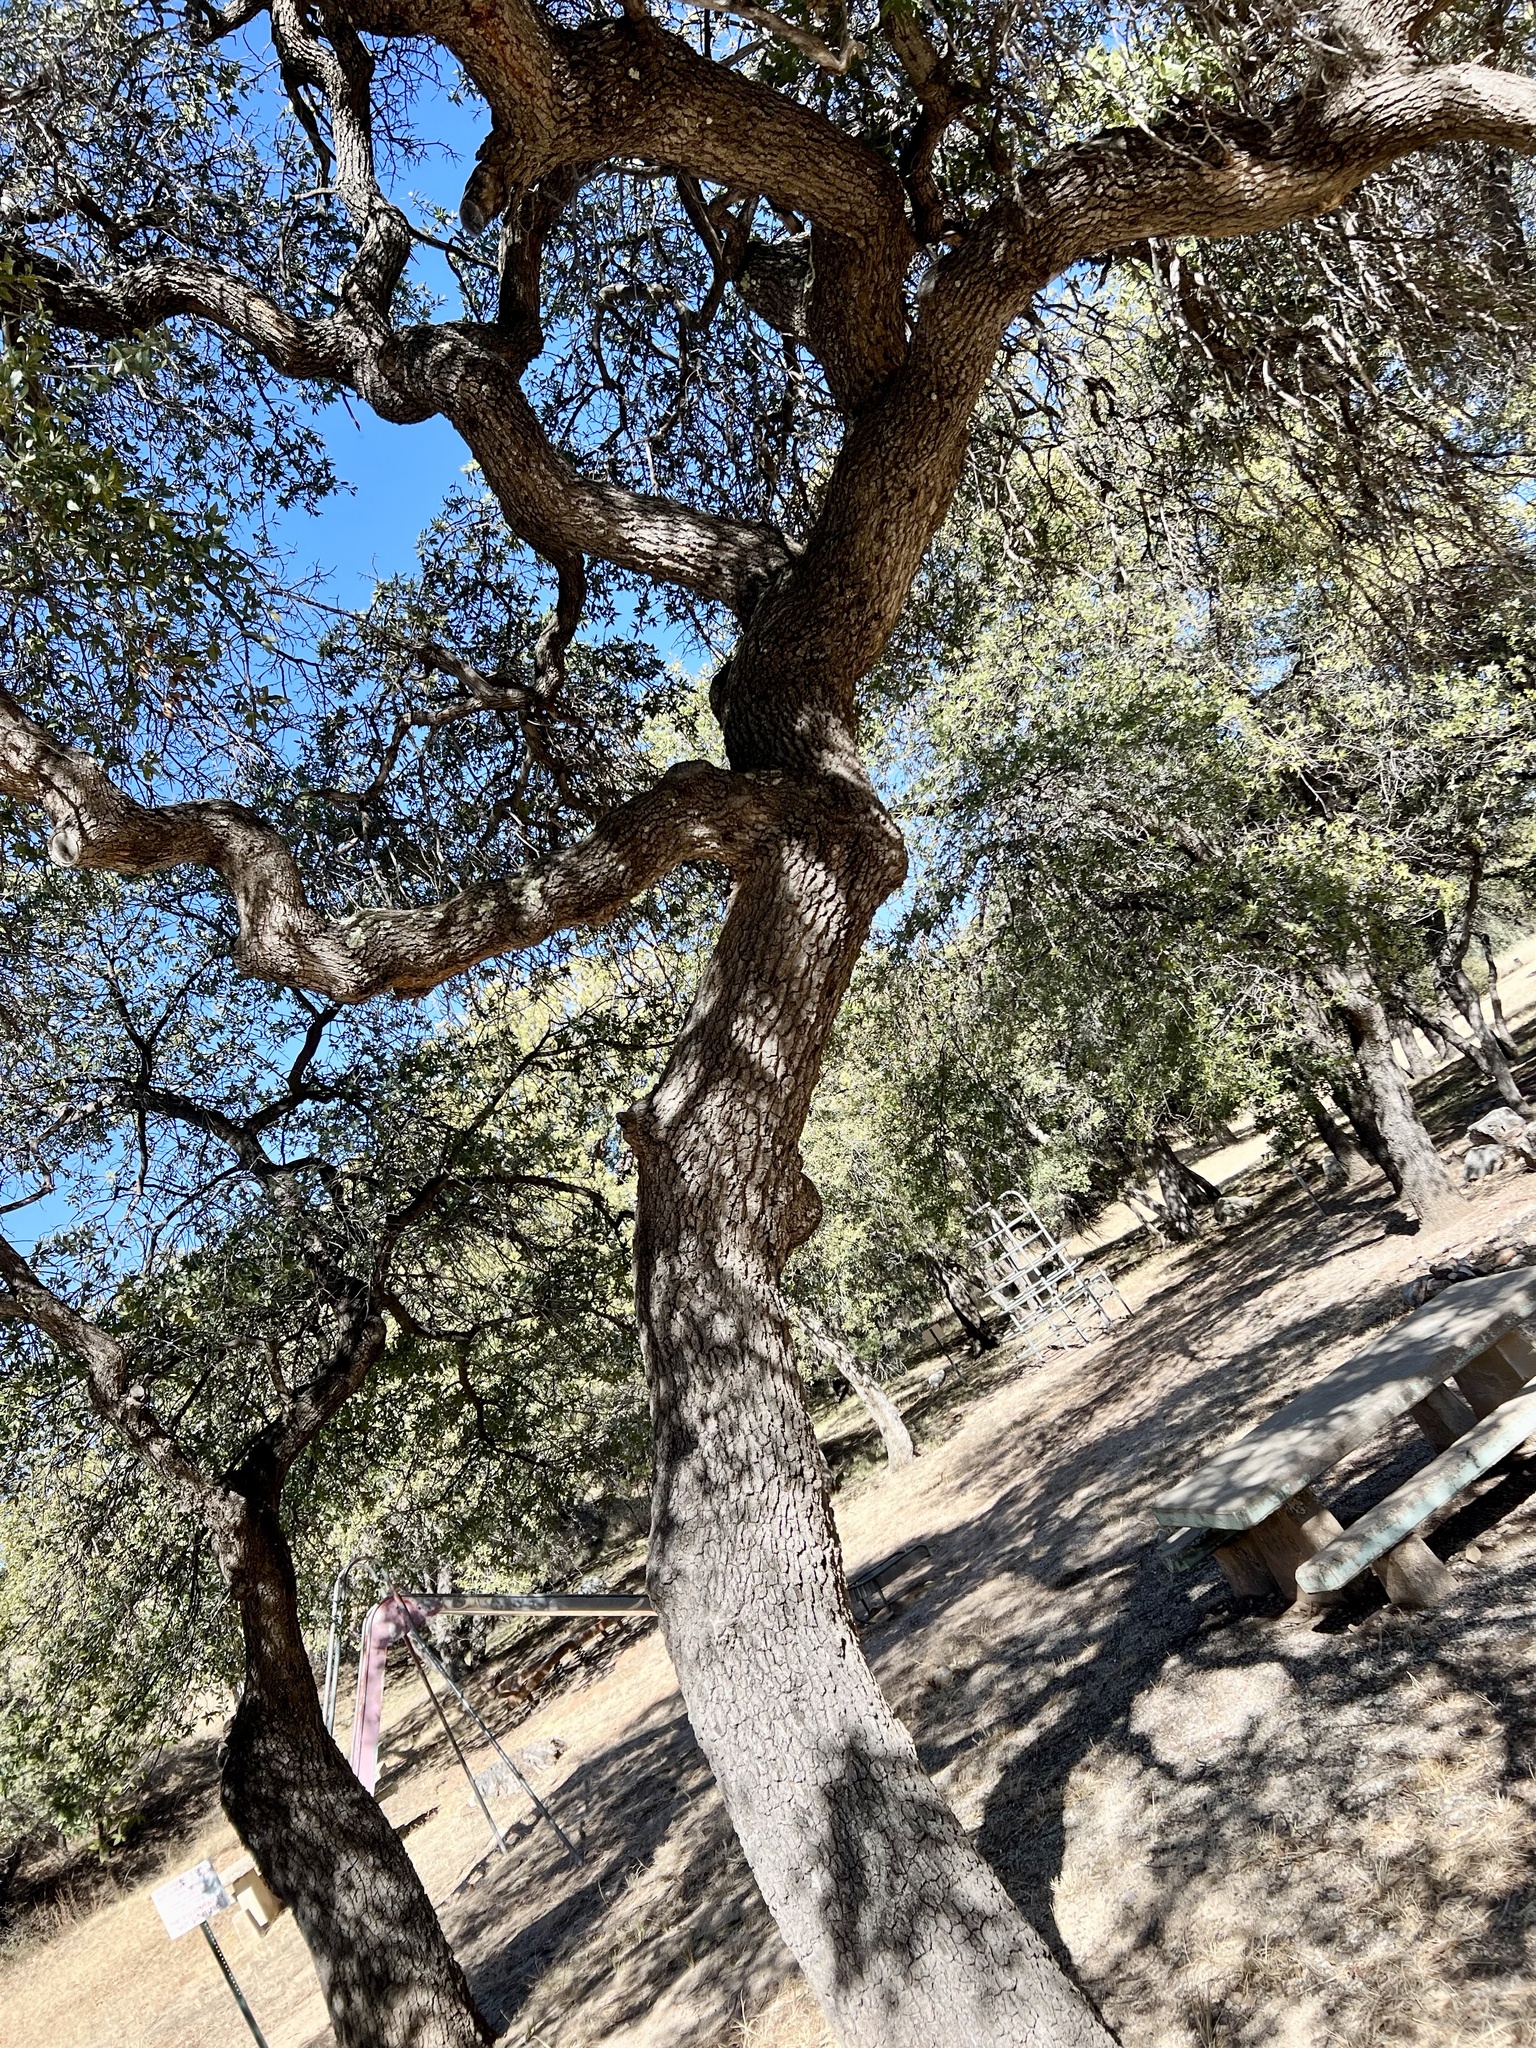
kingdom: Plantae
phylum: Tracheophyta
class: Magnoliopsida
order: Fagales
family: Fagaceae
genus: Quercus
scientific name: Quercus emoryi
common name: Emory oak
